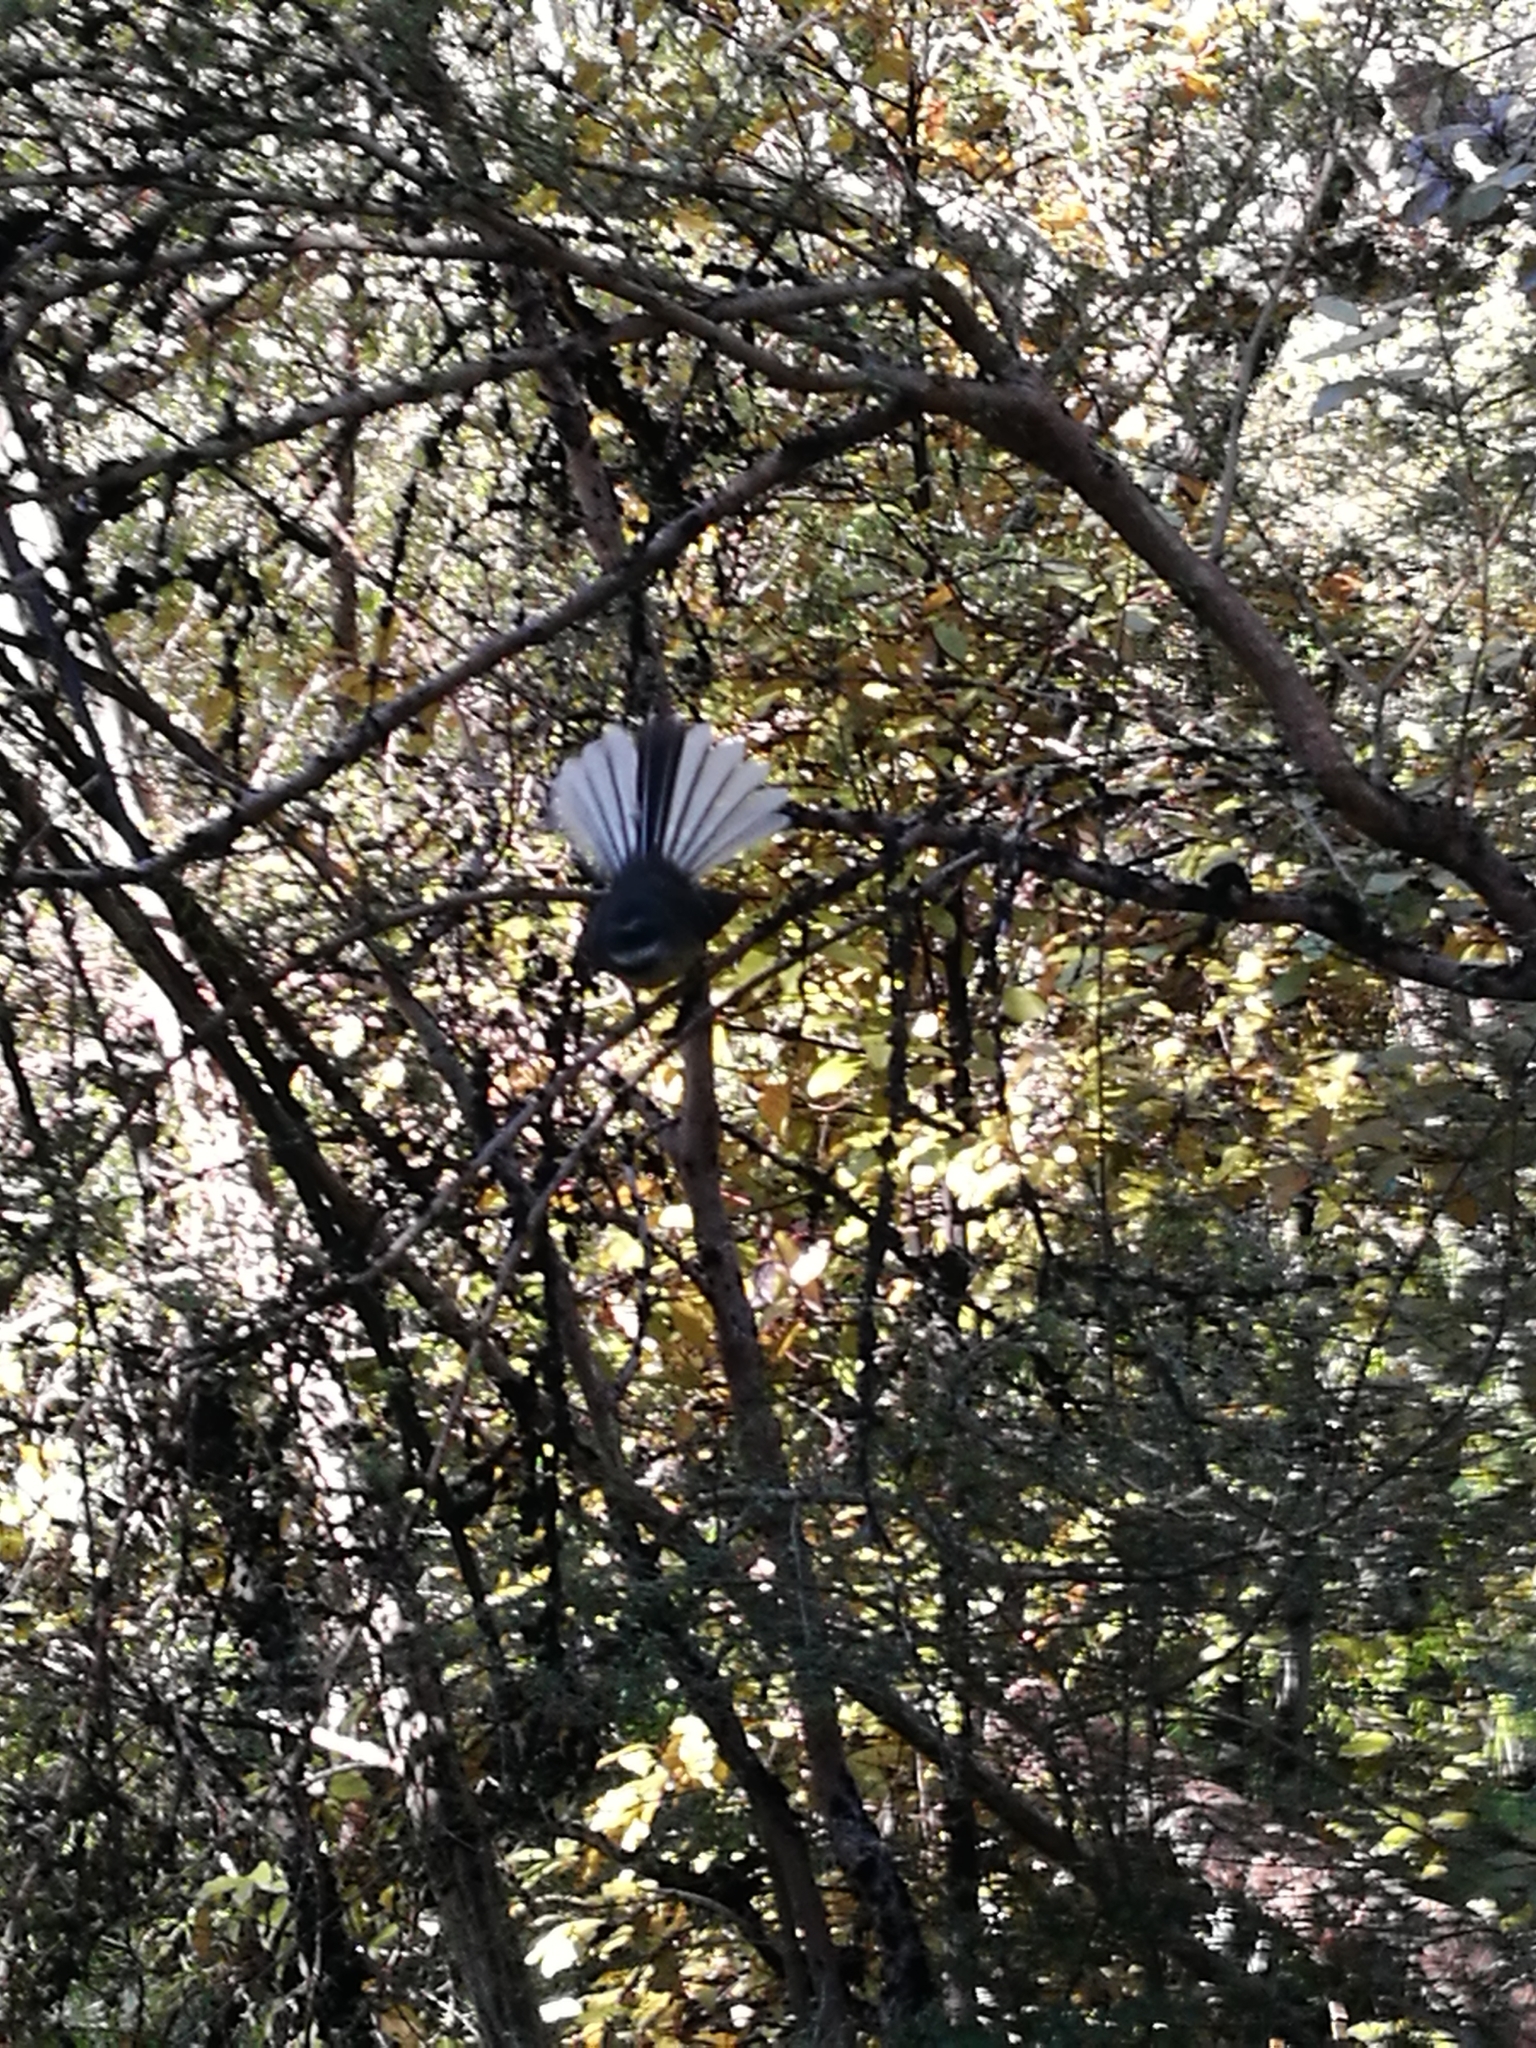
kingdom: Animalia
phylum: Chordata
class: Aves
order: Passeriformes
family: Rhipiduridae
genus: Rhipidura
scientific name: Rhipidura fuliginosa
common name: New zealand fantail
